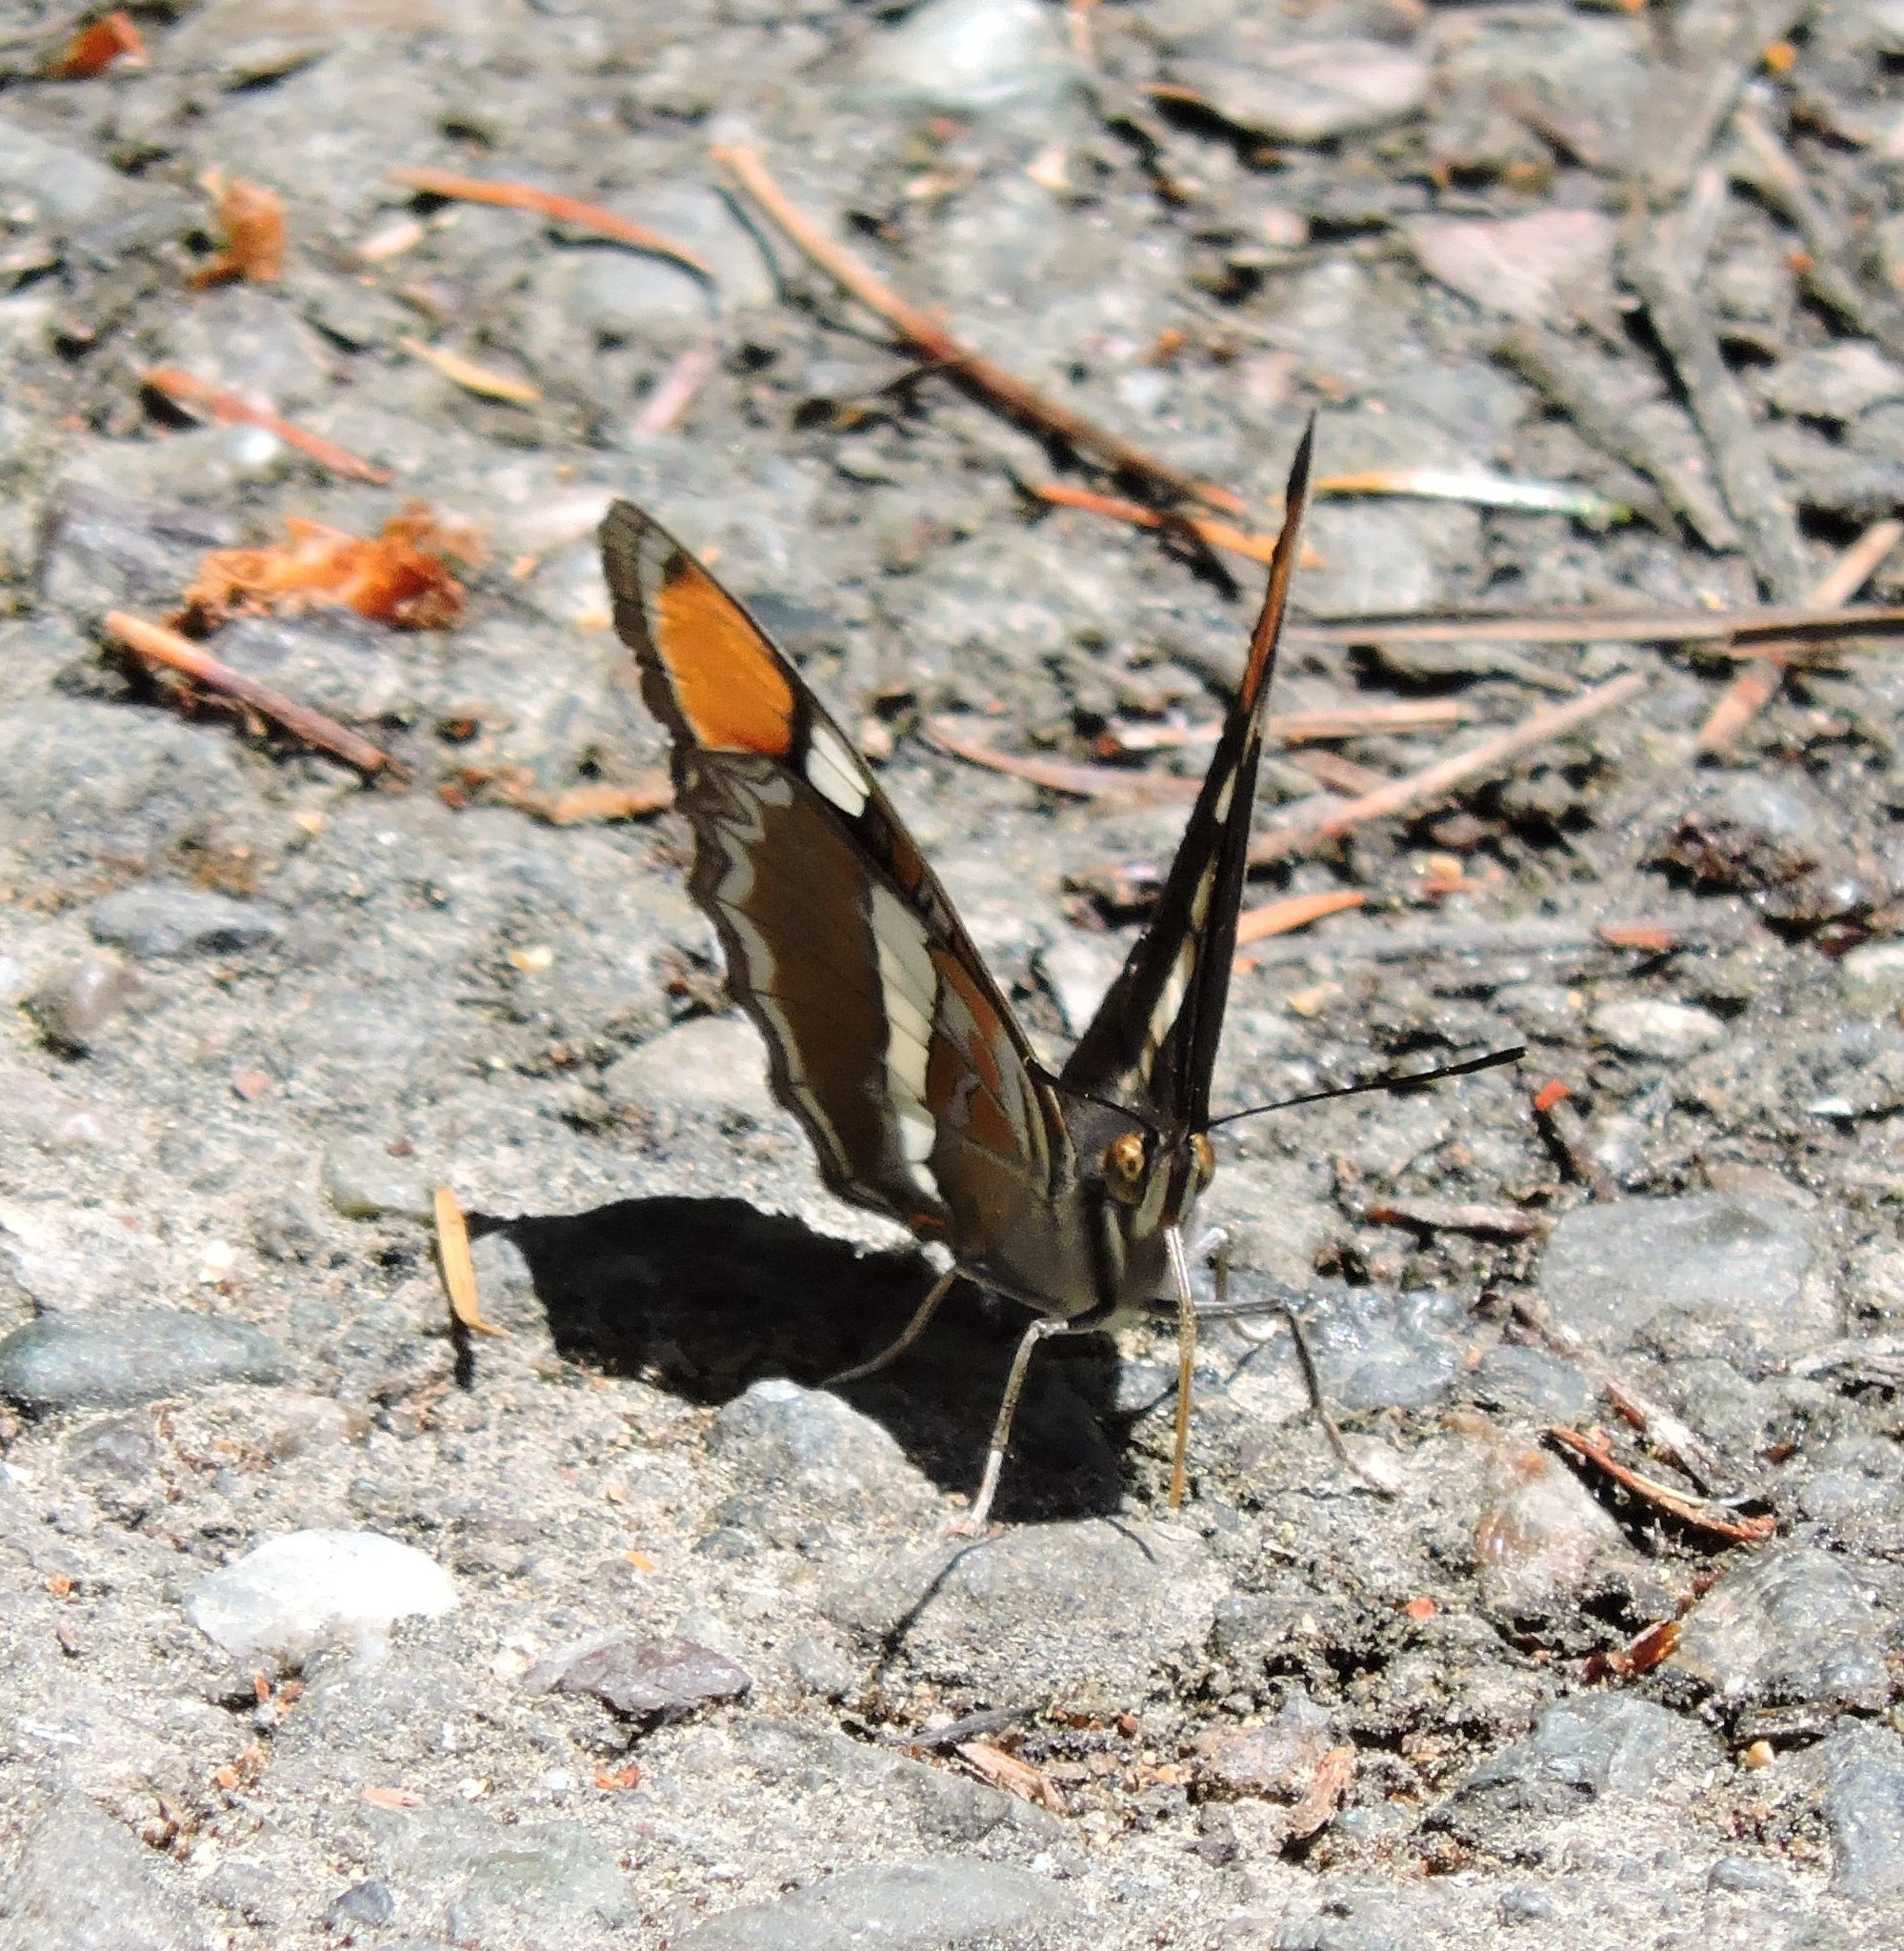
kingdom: Animalia
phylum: Arthropoda
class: Insecta
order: Lepidoptera
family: Nymphalidae
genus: Limenitis
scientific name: Limenitis bredowii
